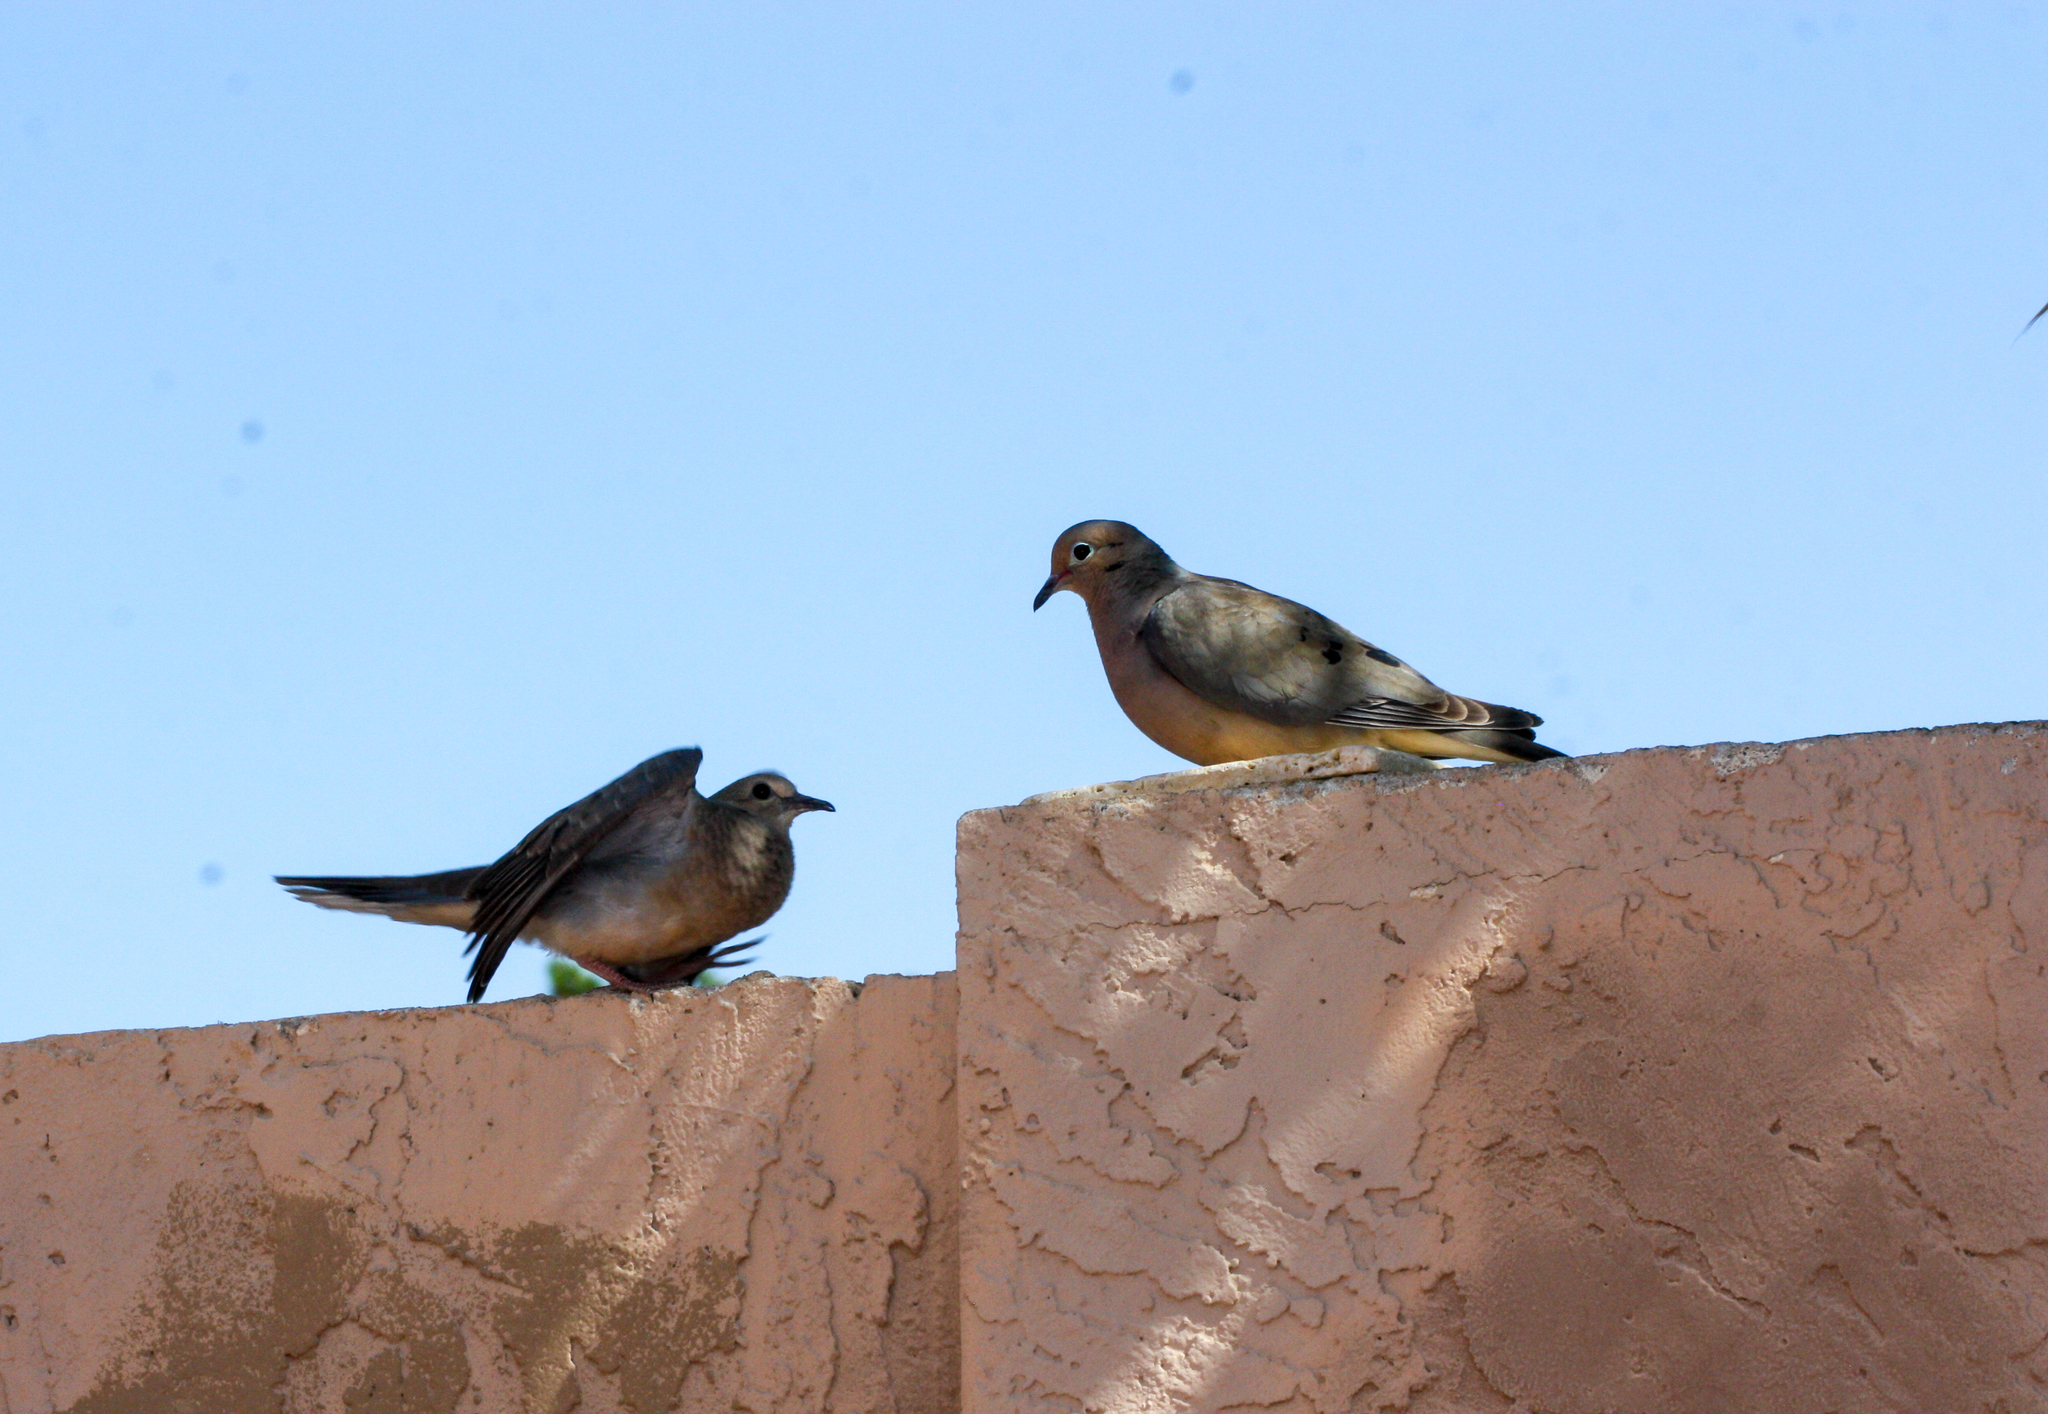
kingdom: Animalia
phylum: Chordata
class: Aves
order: Columbiformes
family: Columbidae
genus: Zenaida
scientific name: Zenaida macroura
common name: Mourning dove
